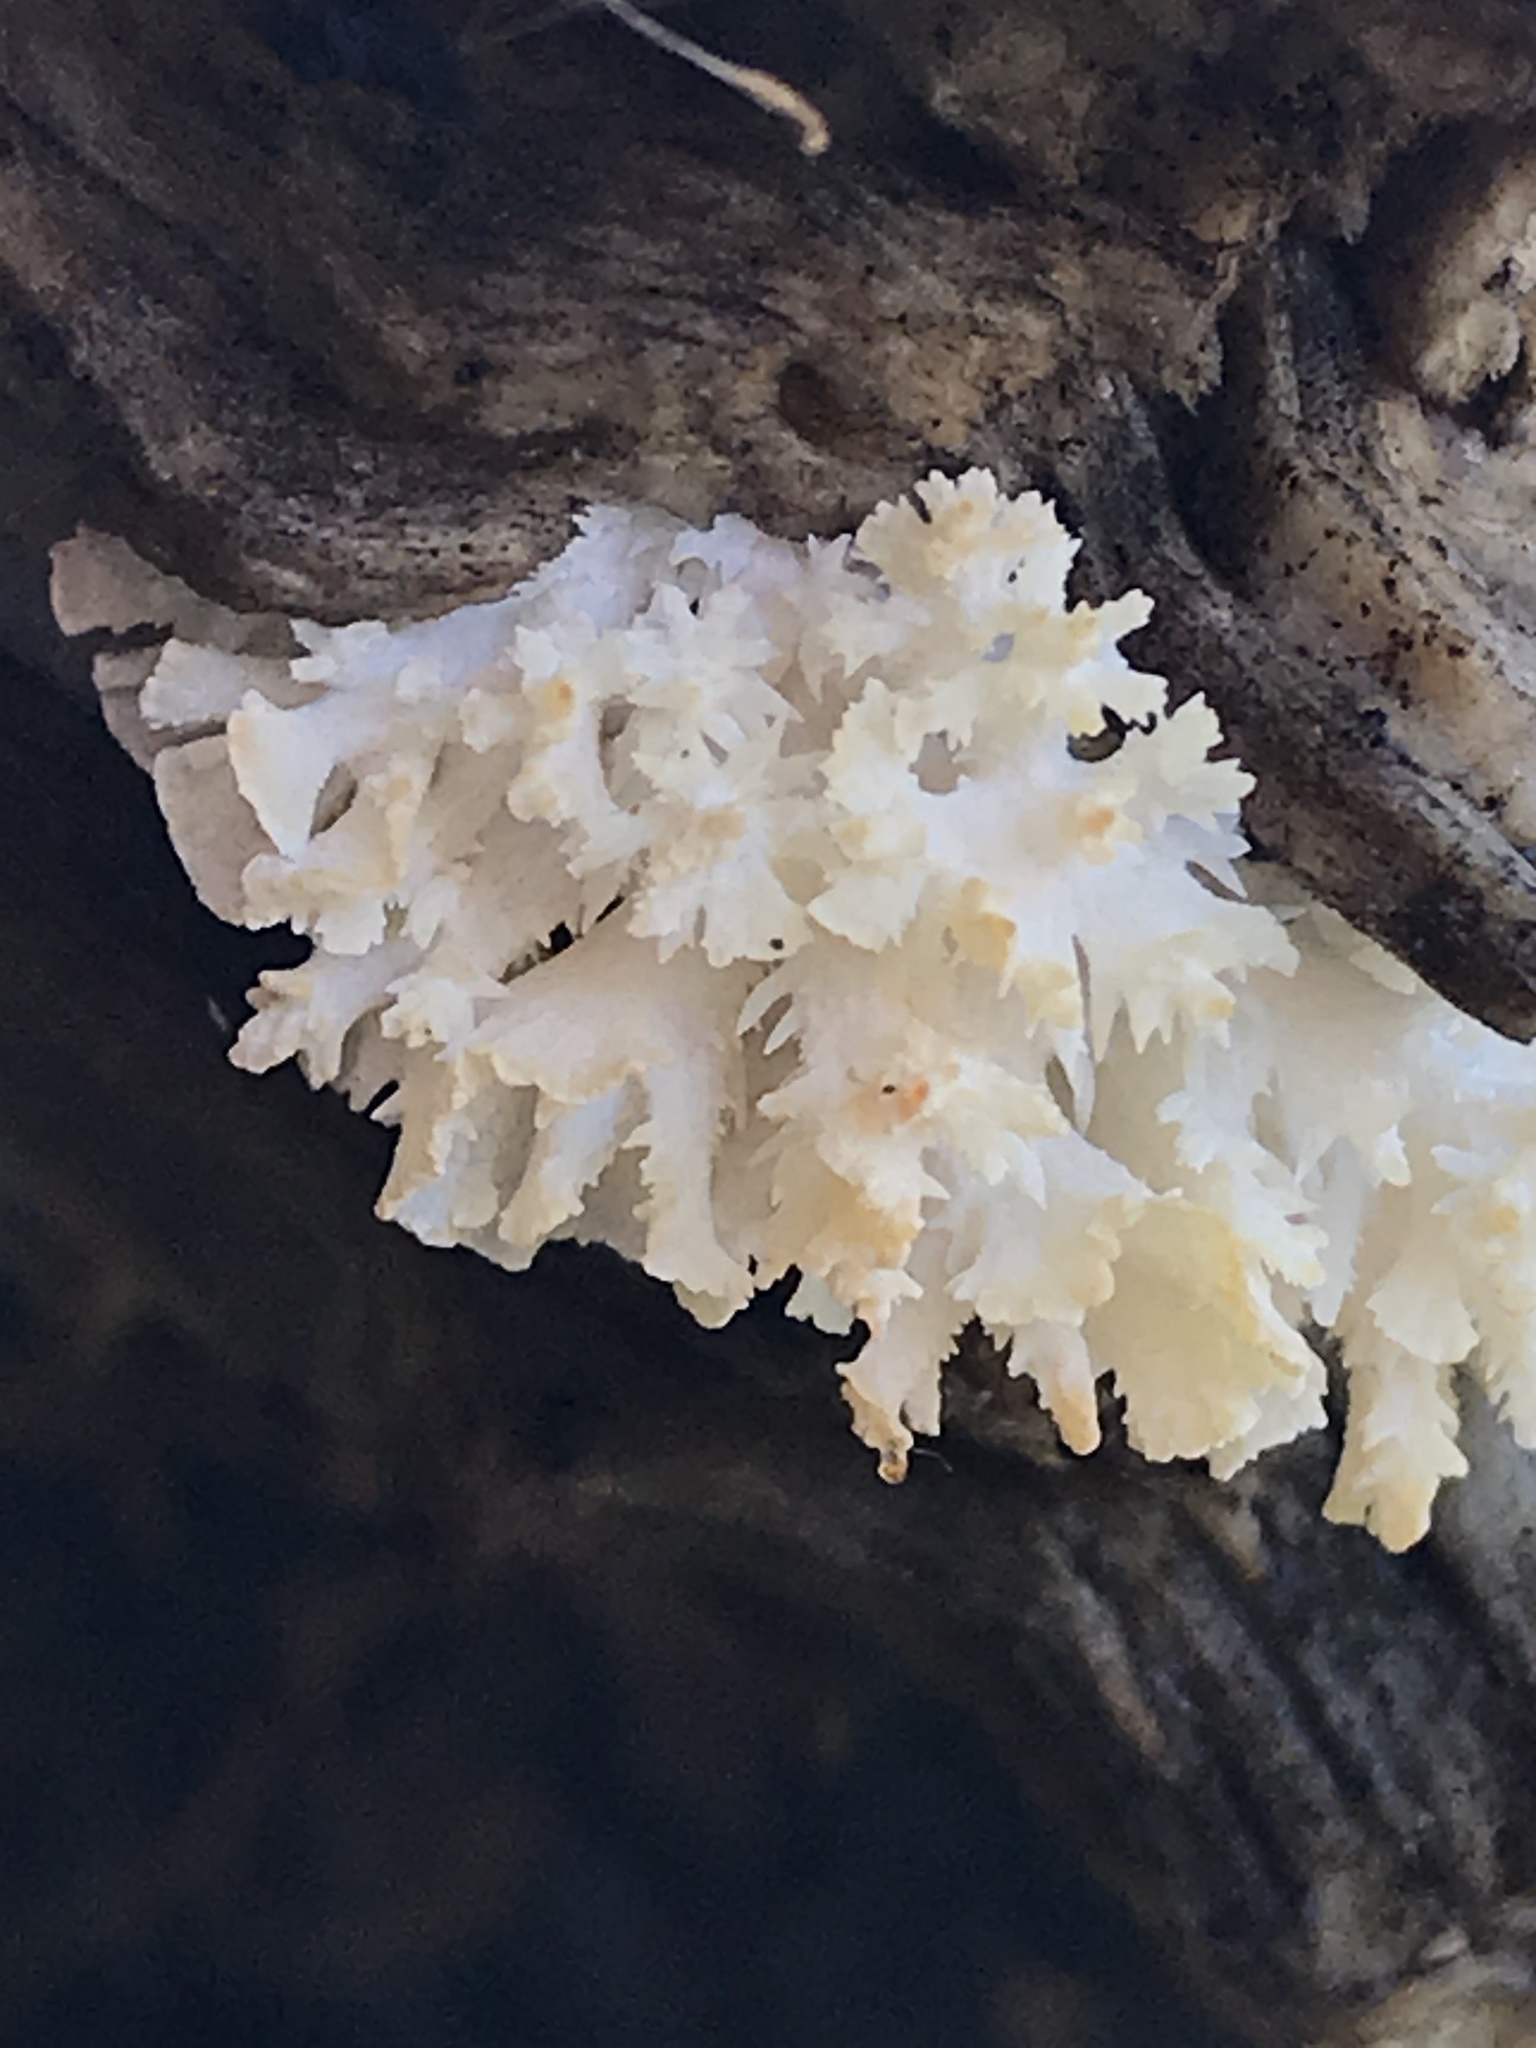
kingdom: Fungi
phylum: Basidiomycota
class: Agaricomycetes
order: Russulales
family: Hericiaceae
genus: Hericium
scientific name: Hericium coralloides
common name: Coral tooth
